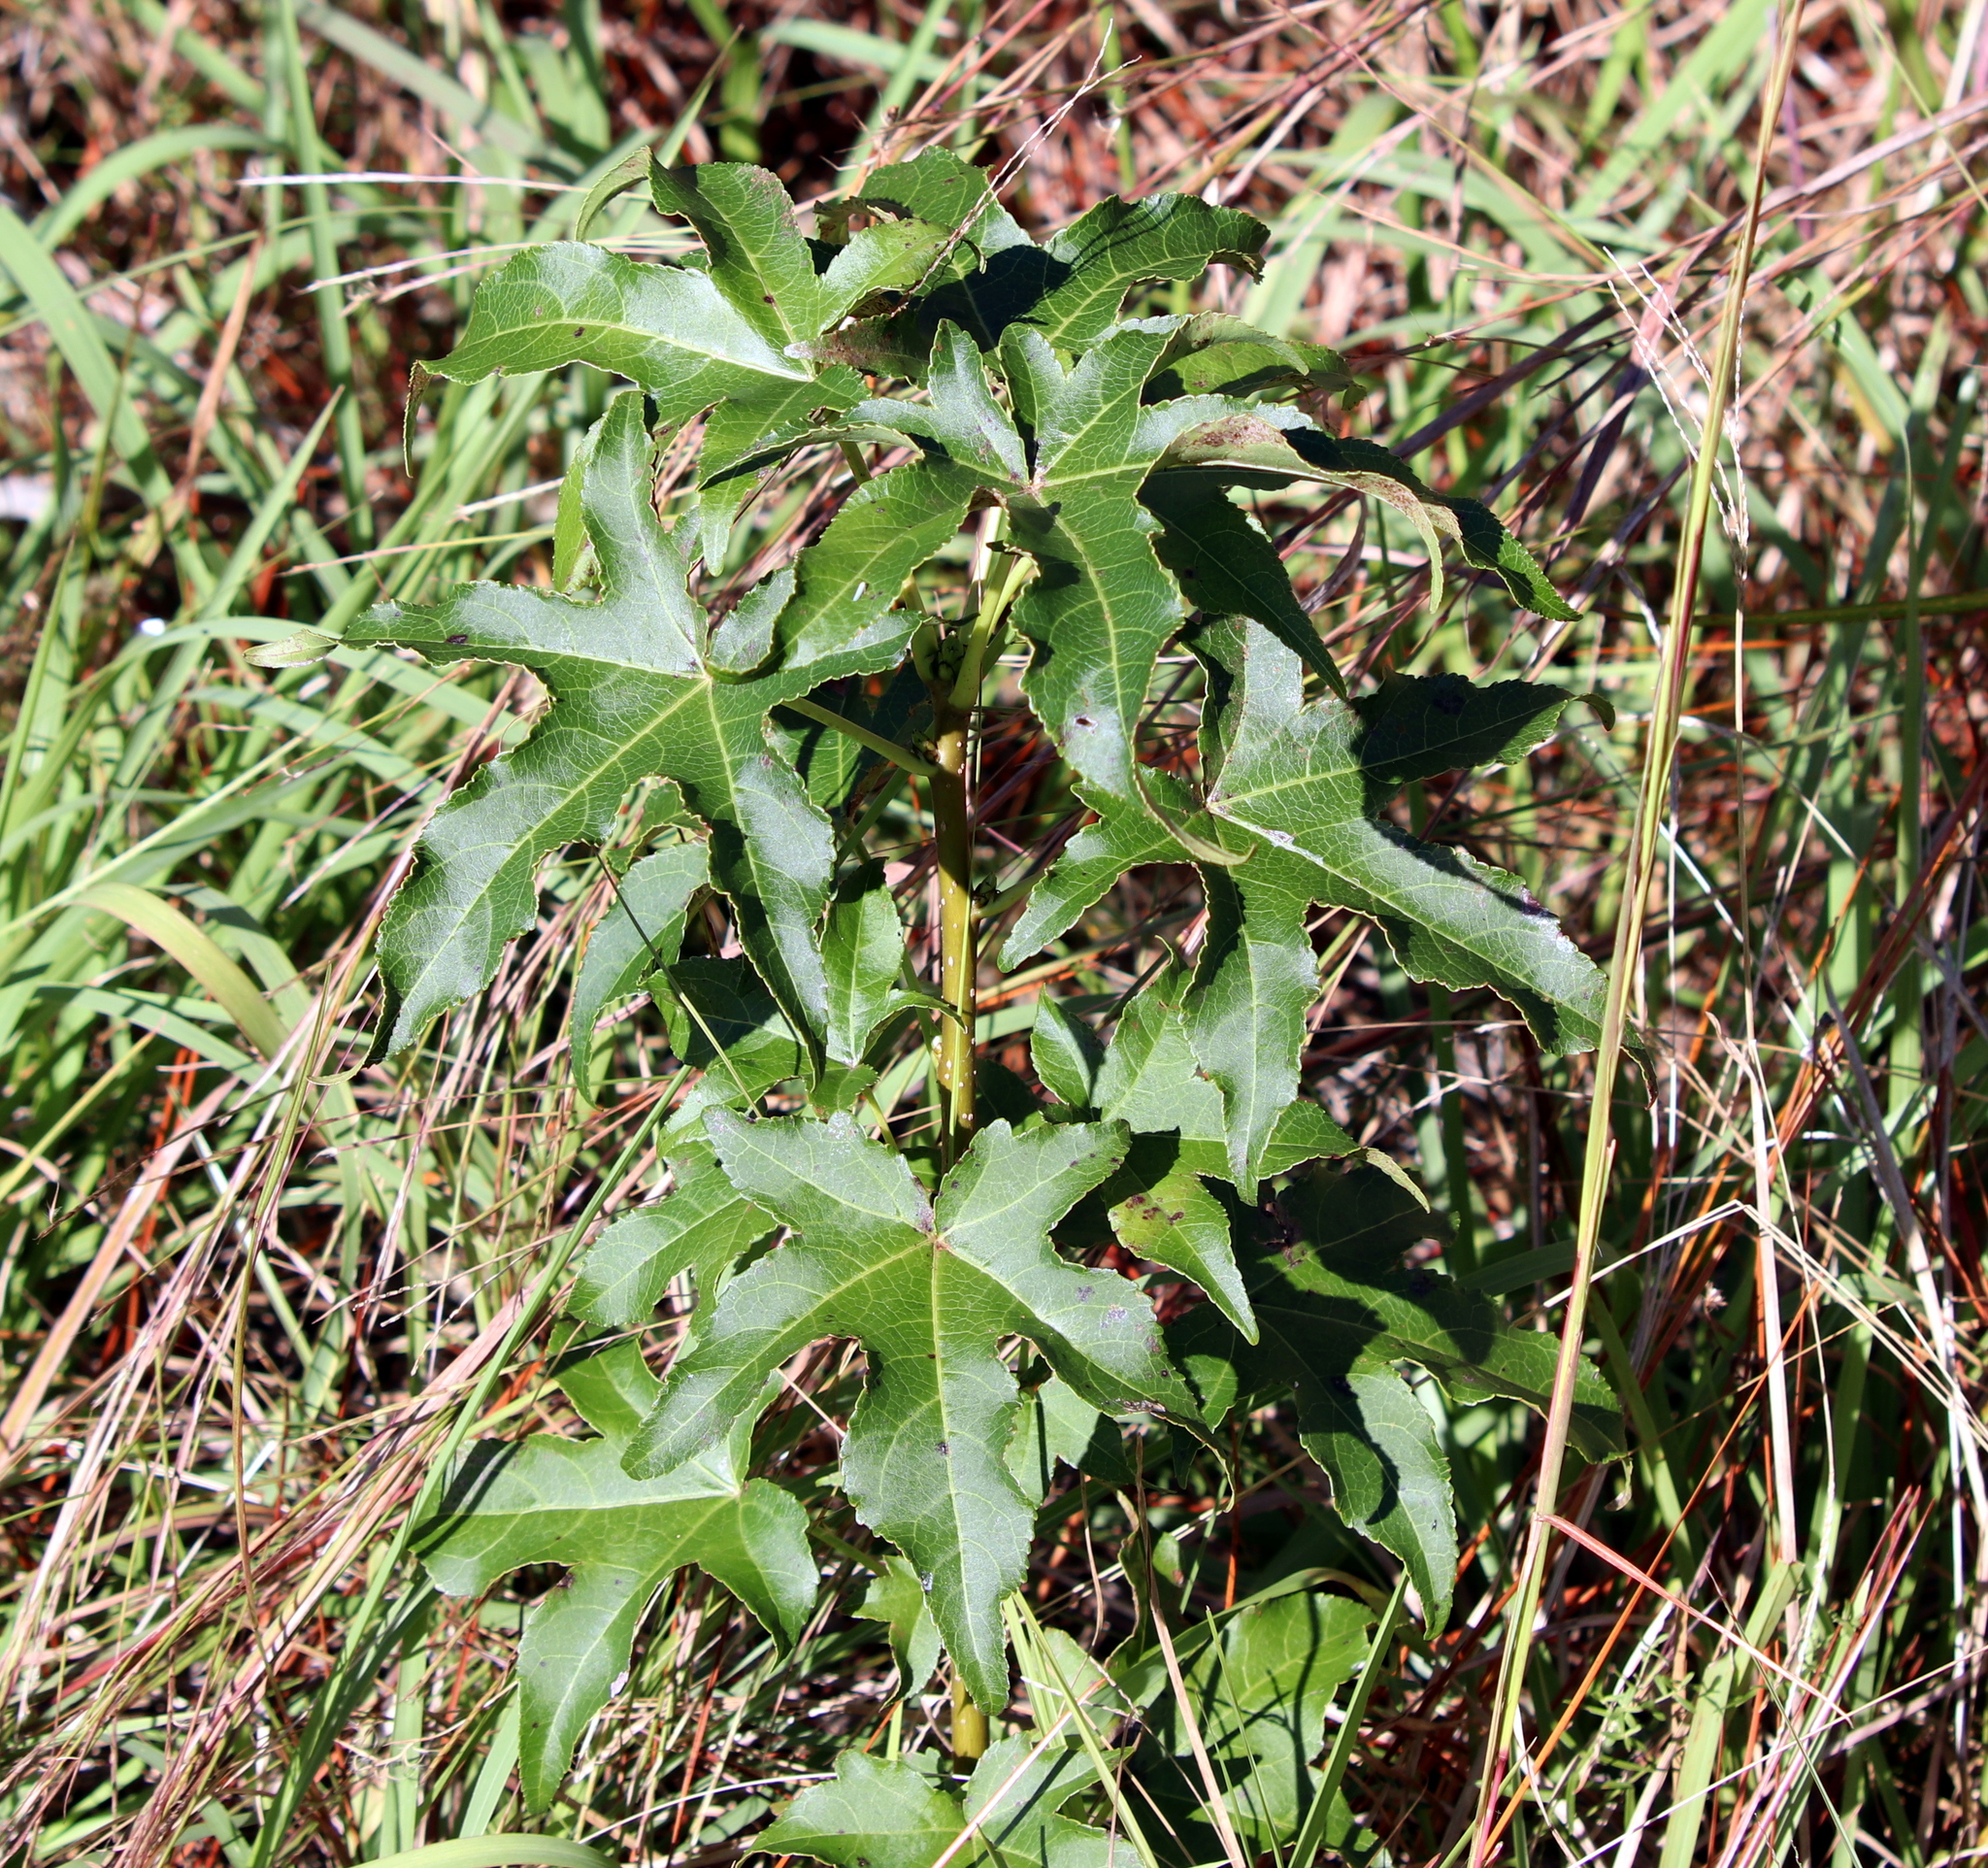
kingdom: Plantae
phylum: Tracheophyta
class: Magnoliopsida
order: Saxifragales
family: Altingiaceae
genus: Liquidambar
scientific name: Liquidambar styraciflua
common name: Sweet gum
